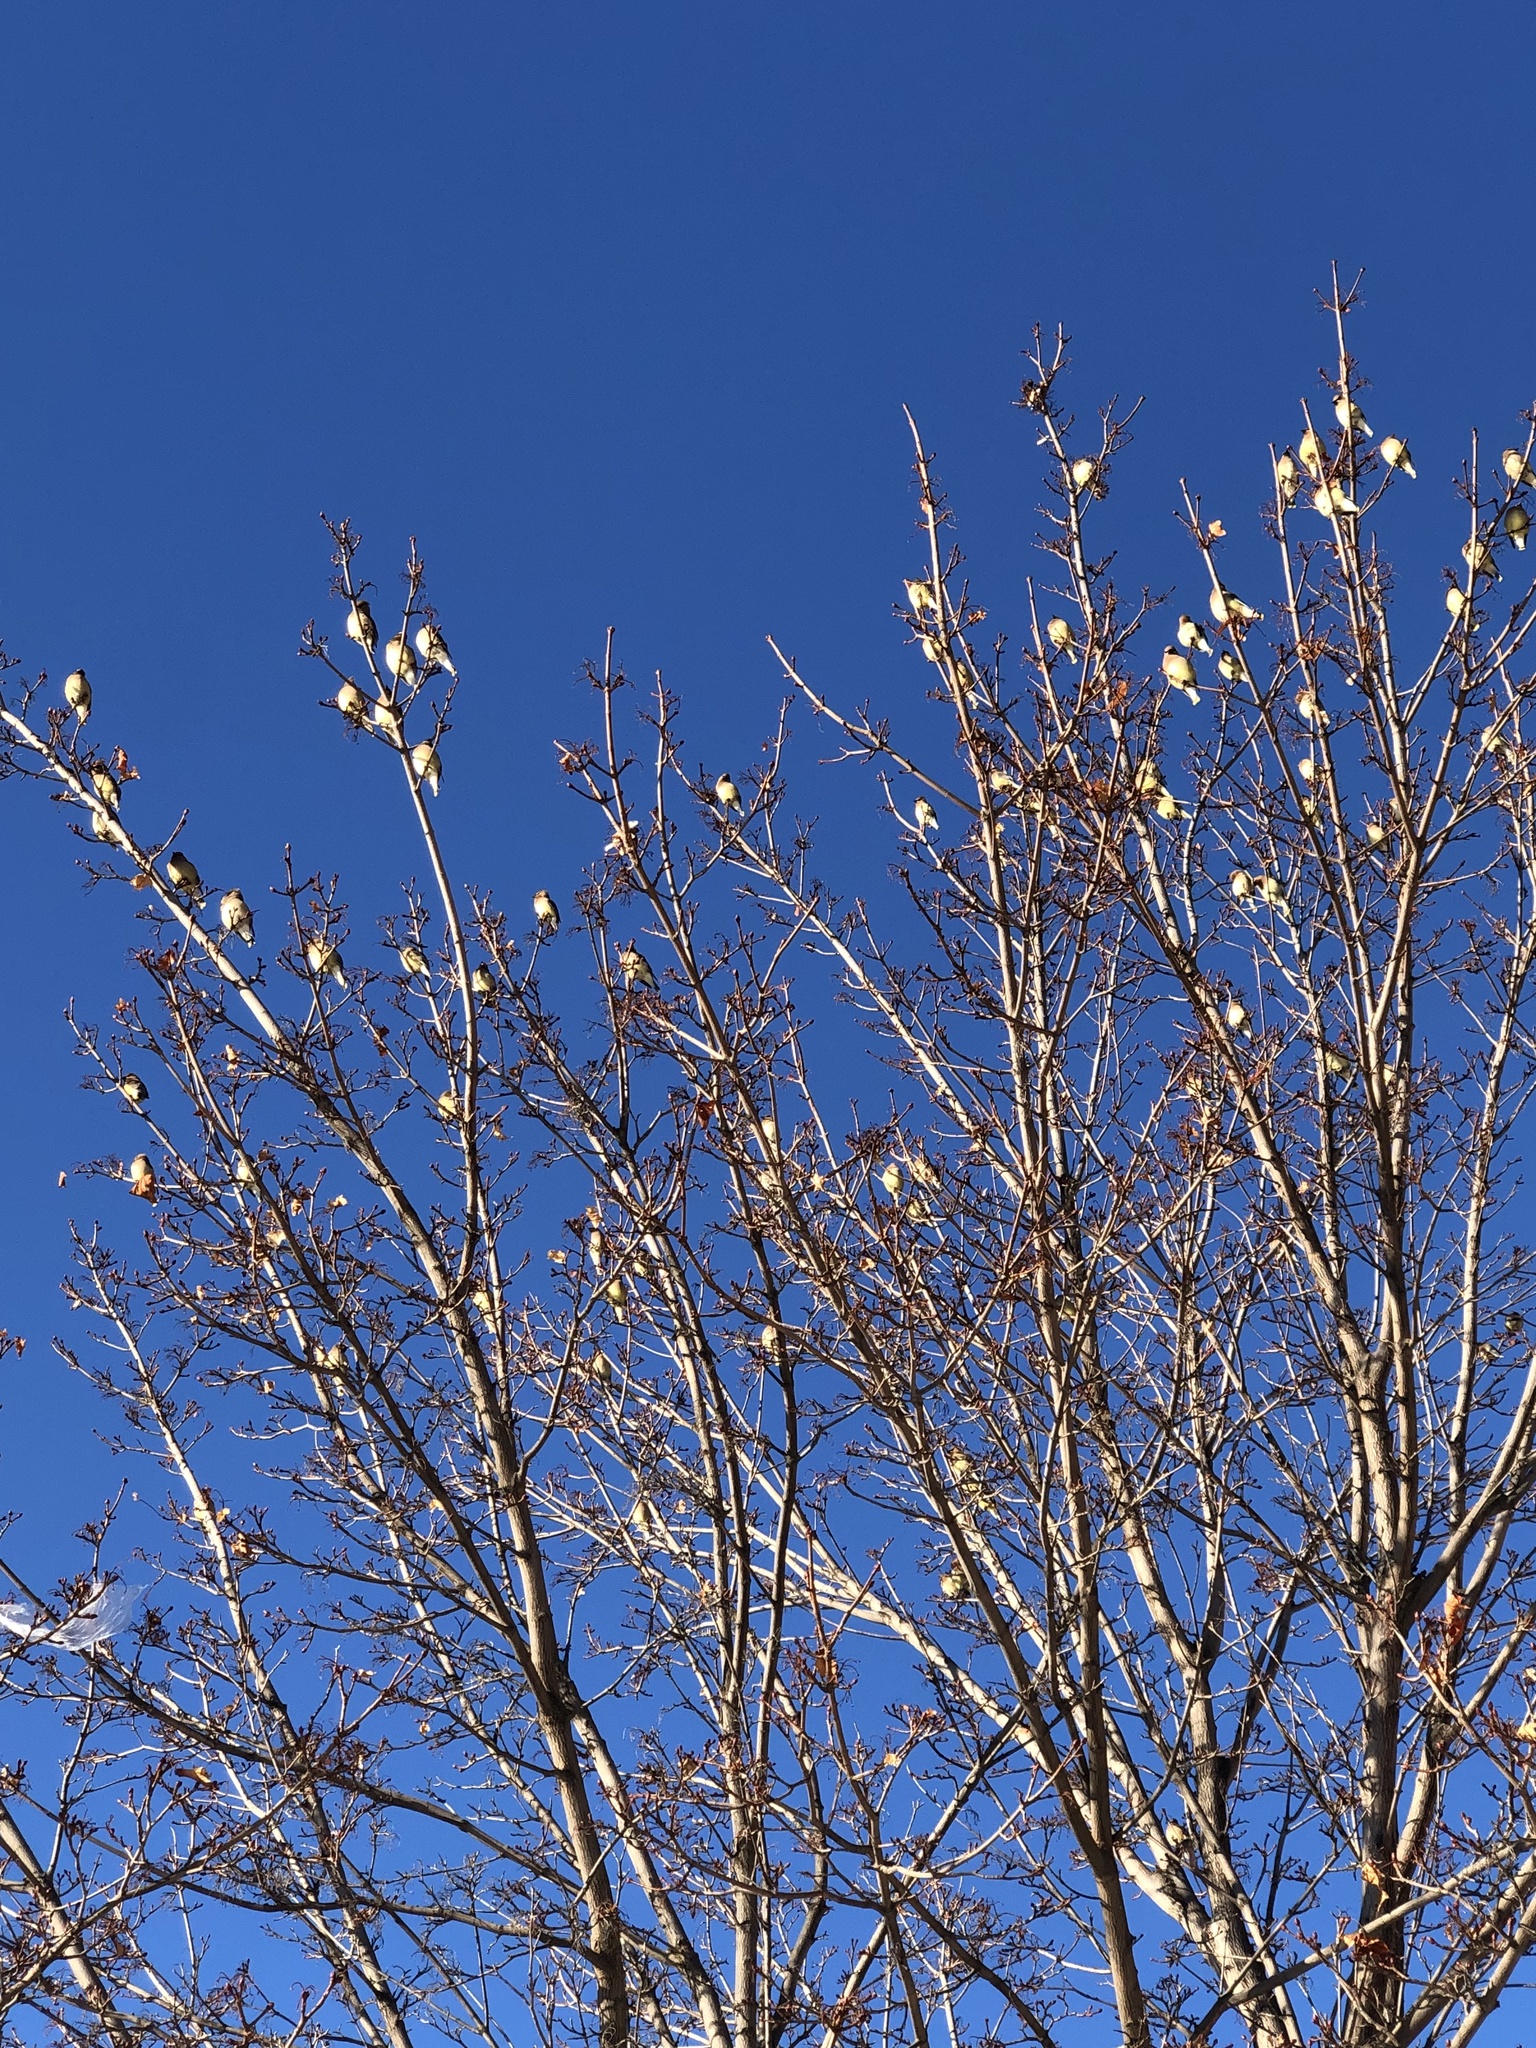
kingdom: Animalia
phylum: Chordata
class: Aves
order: Passeriformes
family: Bombycillidae
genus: Bombycilla
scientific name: Bombycilla garrulus
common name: Bohemian waxwing
